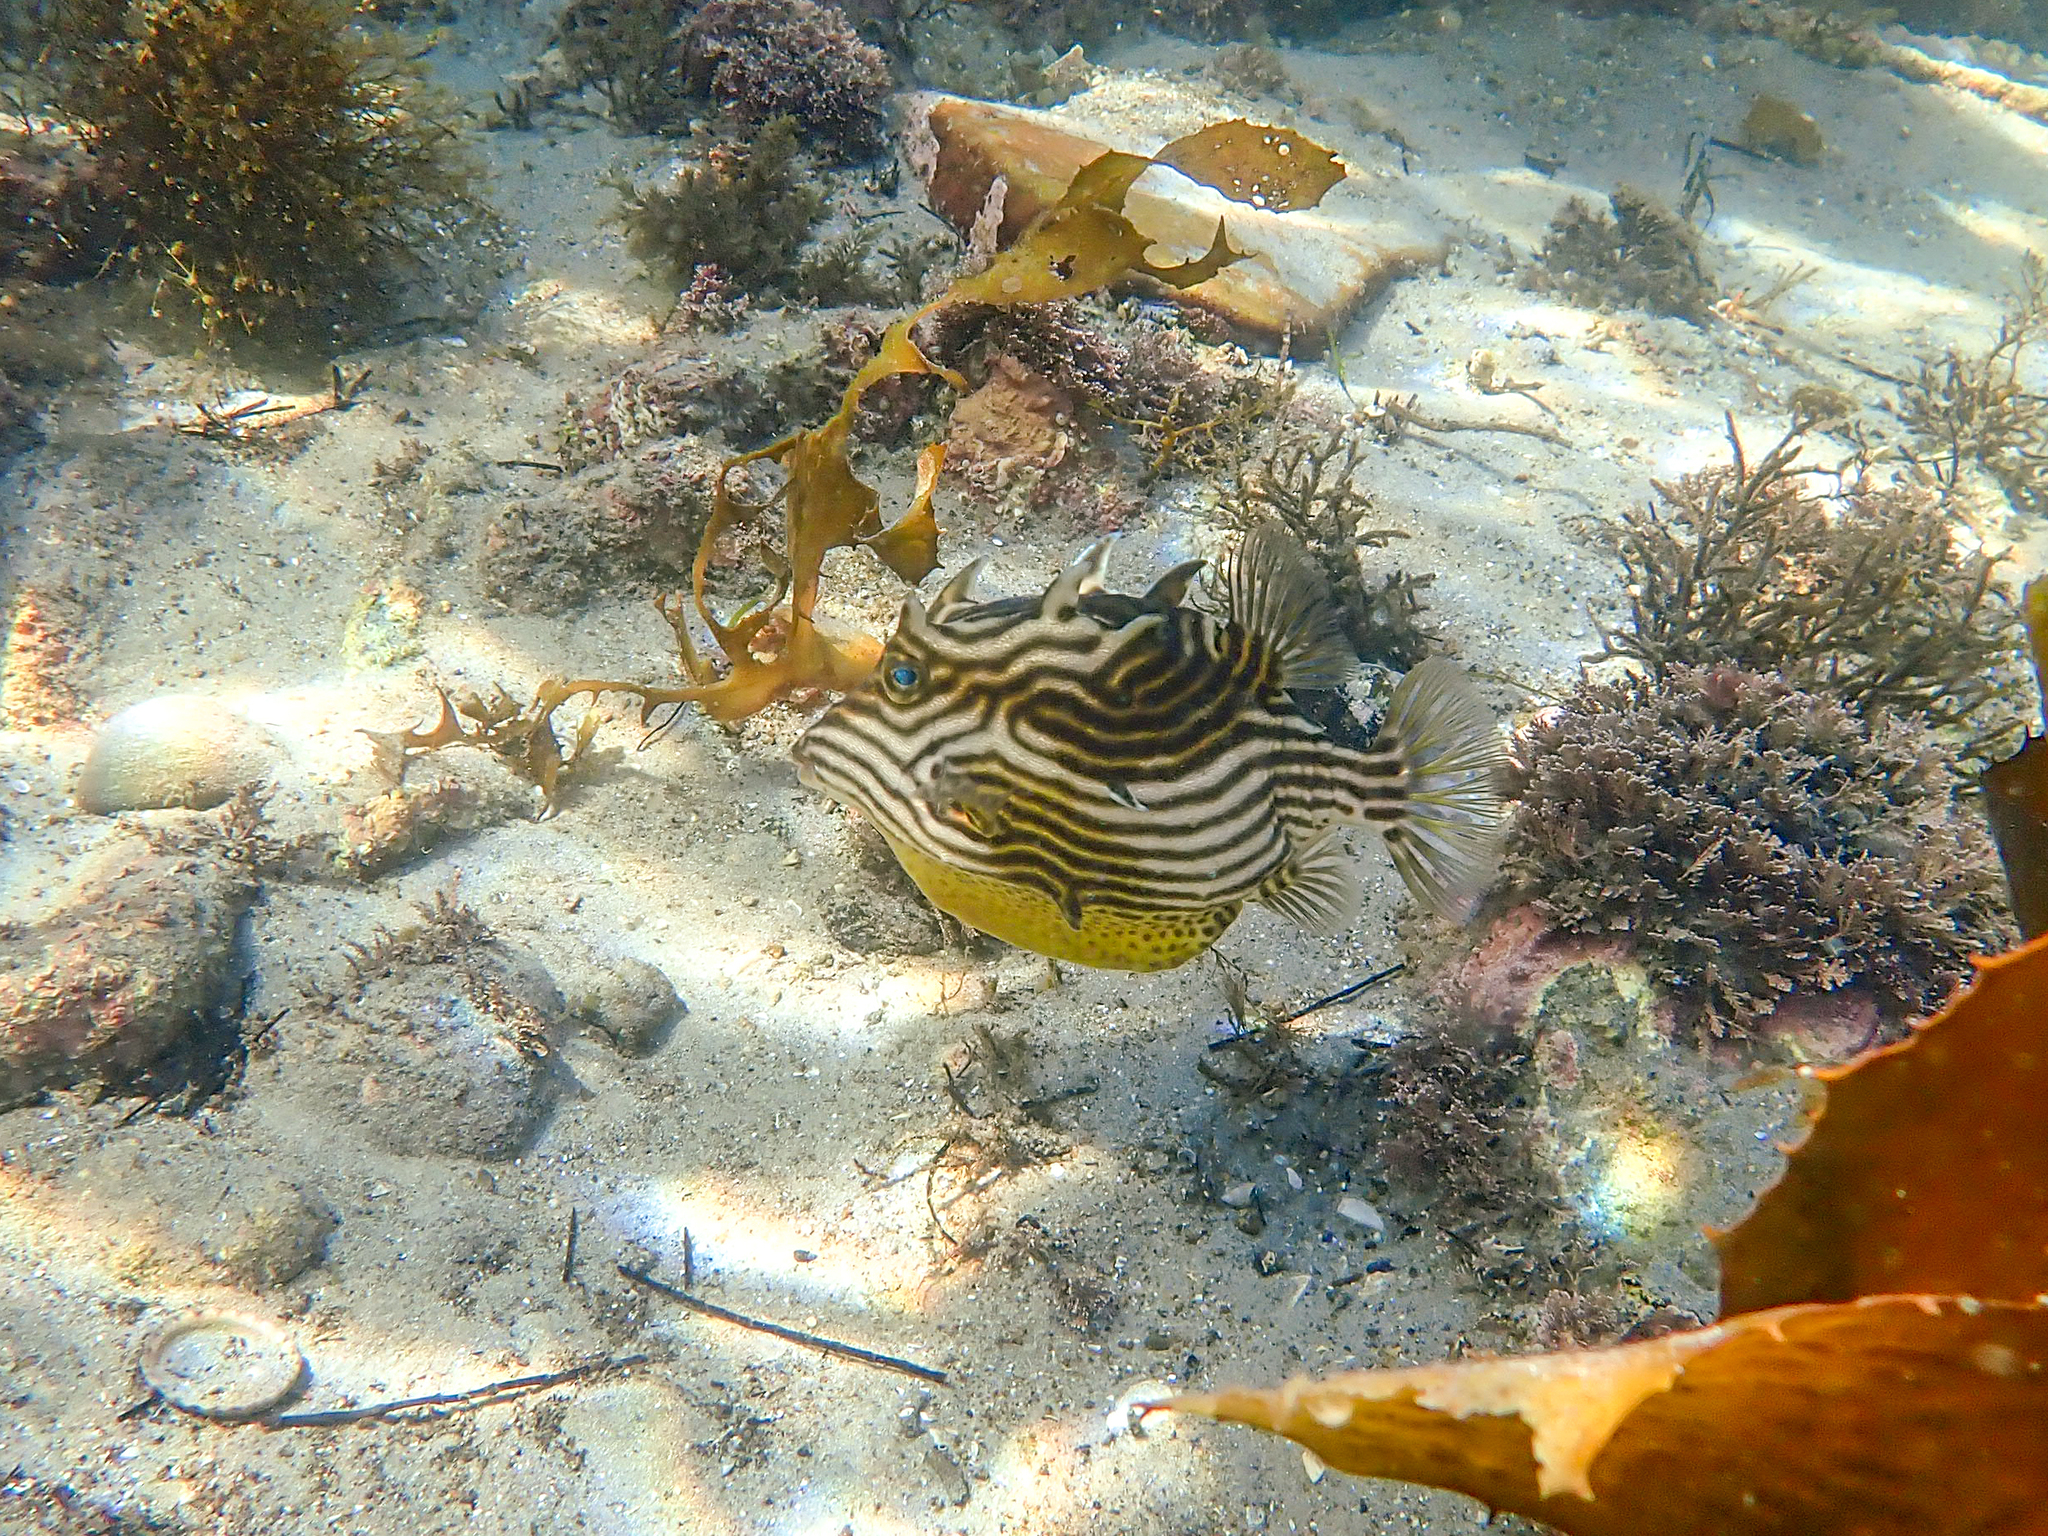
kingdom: Animalia
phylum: Chordata
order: Tetraodontiformes
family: Aracanidae
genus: Aracana
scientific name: Aracana aurita
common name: Shaw’s cowfish
